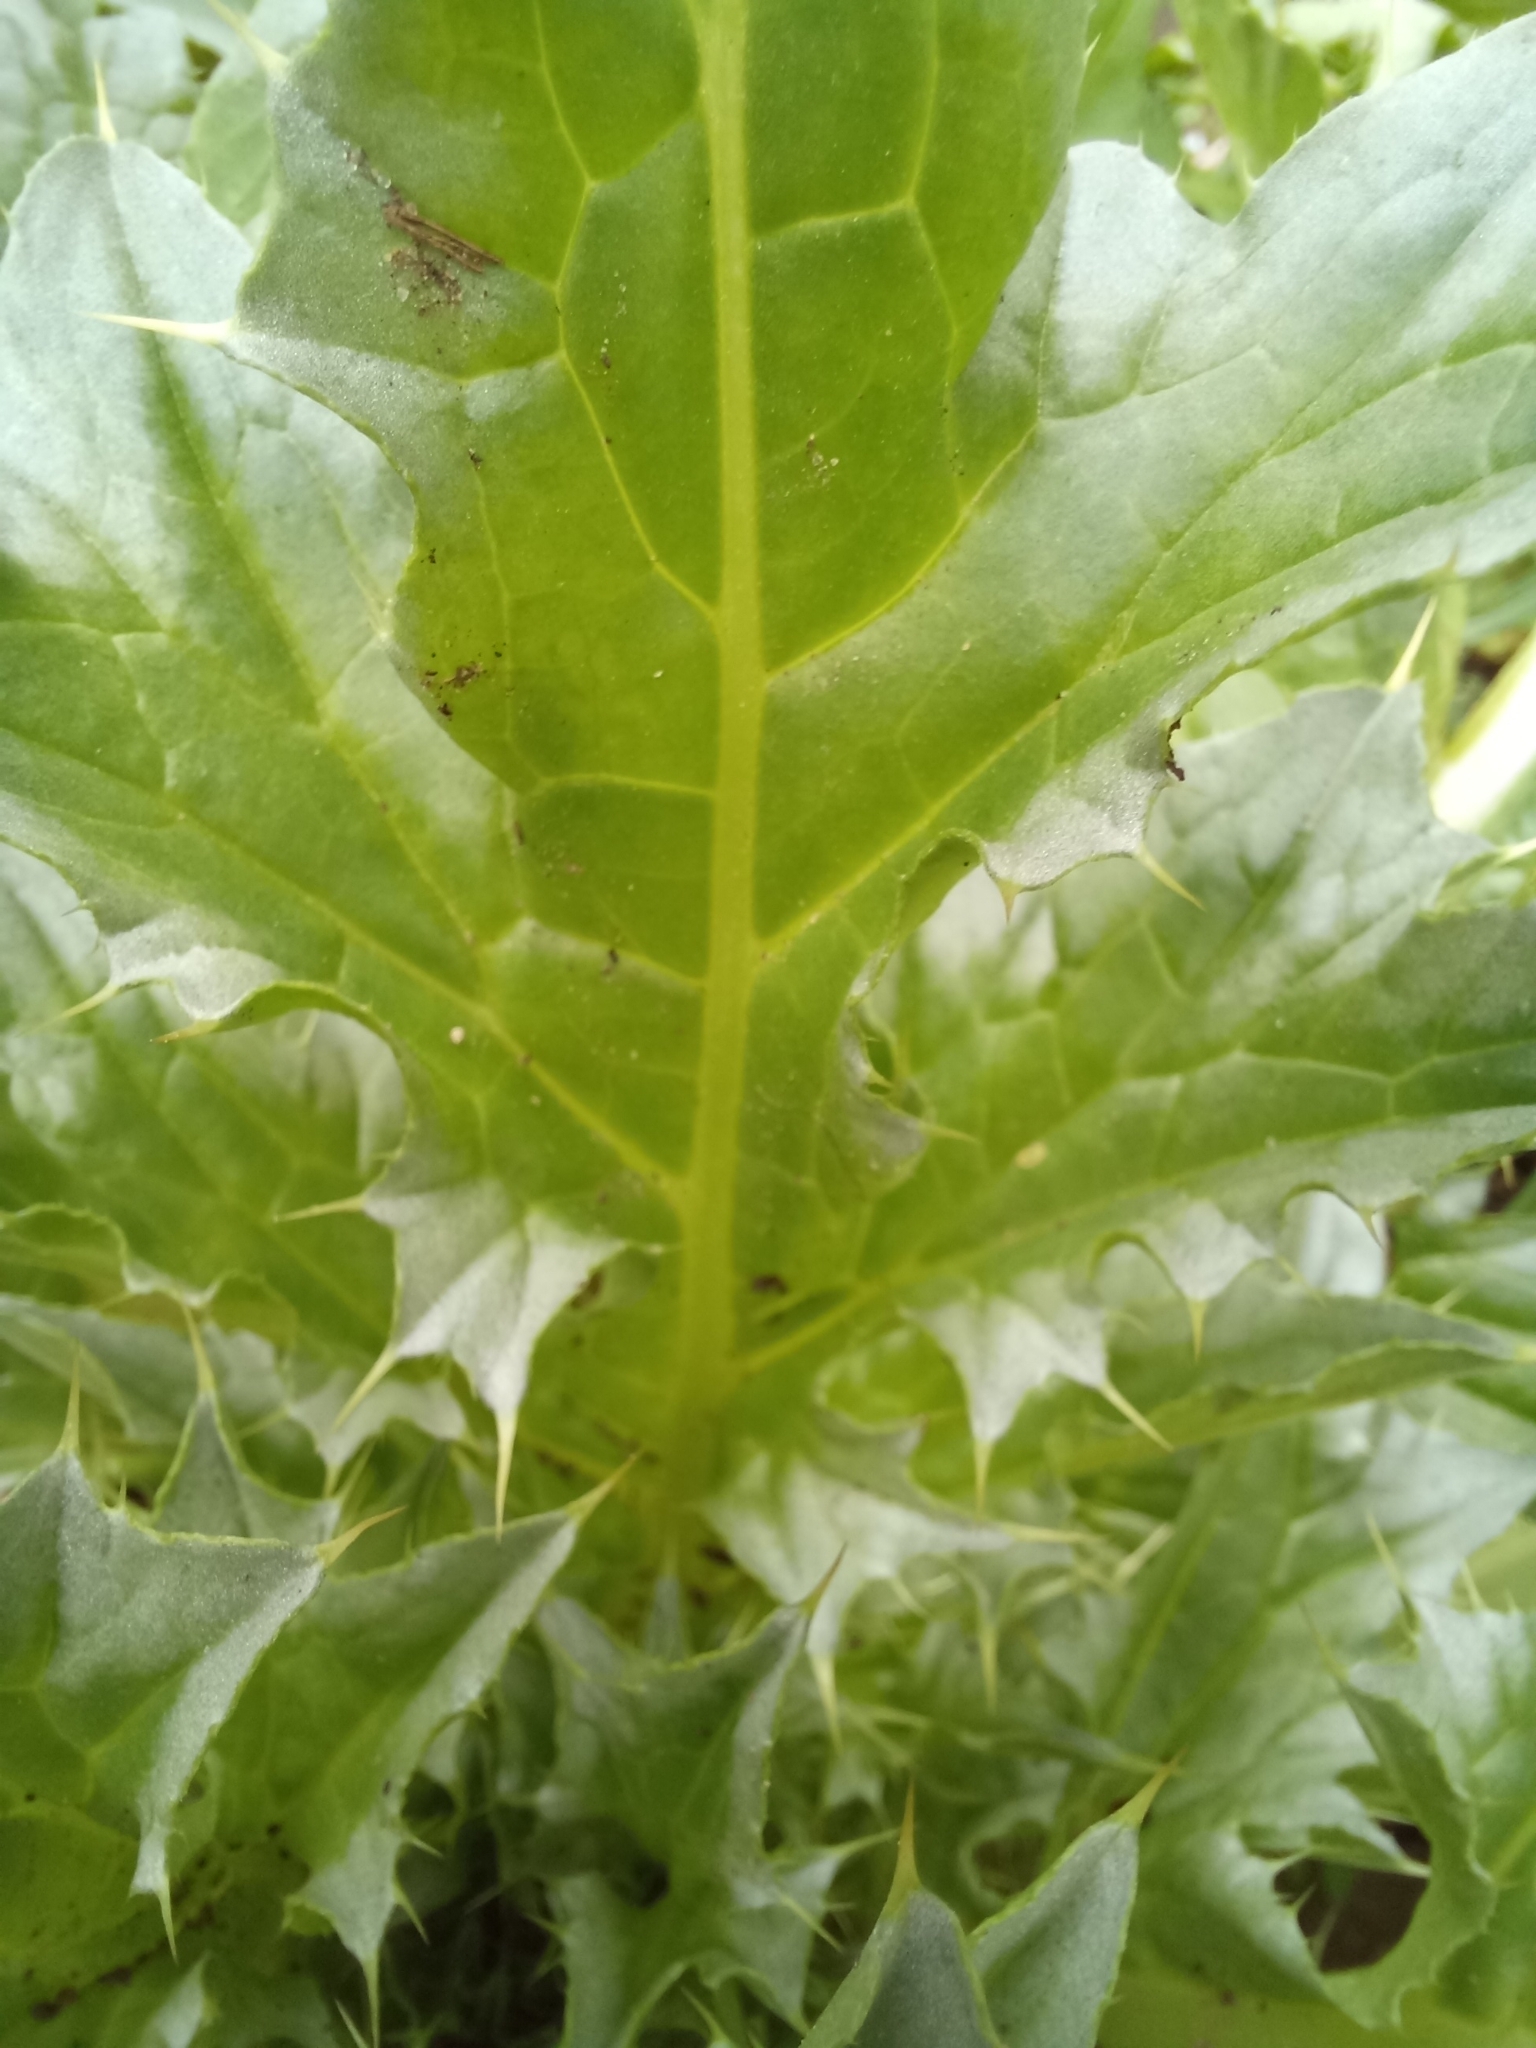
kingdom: Plantae
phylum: Tracheophyta
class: Magnoliopsida
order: Asterales
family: Asteraceae
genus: Carduus
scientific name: Carduus nutans
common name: Musk thistle
